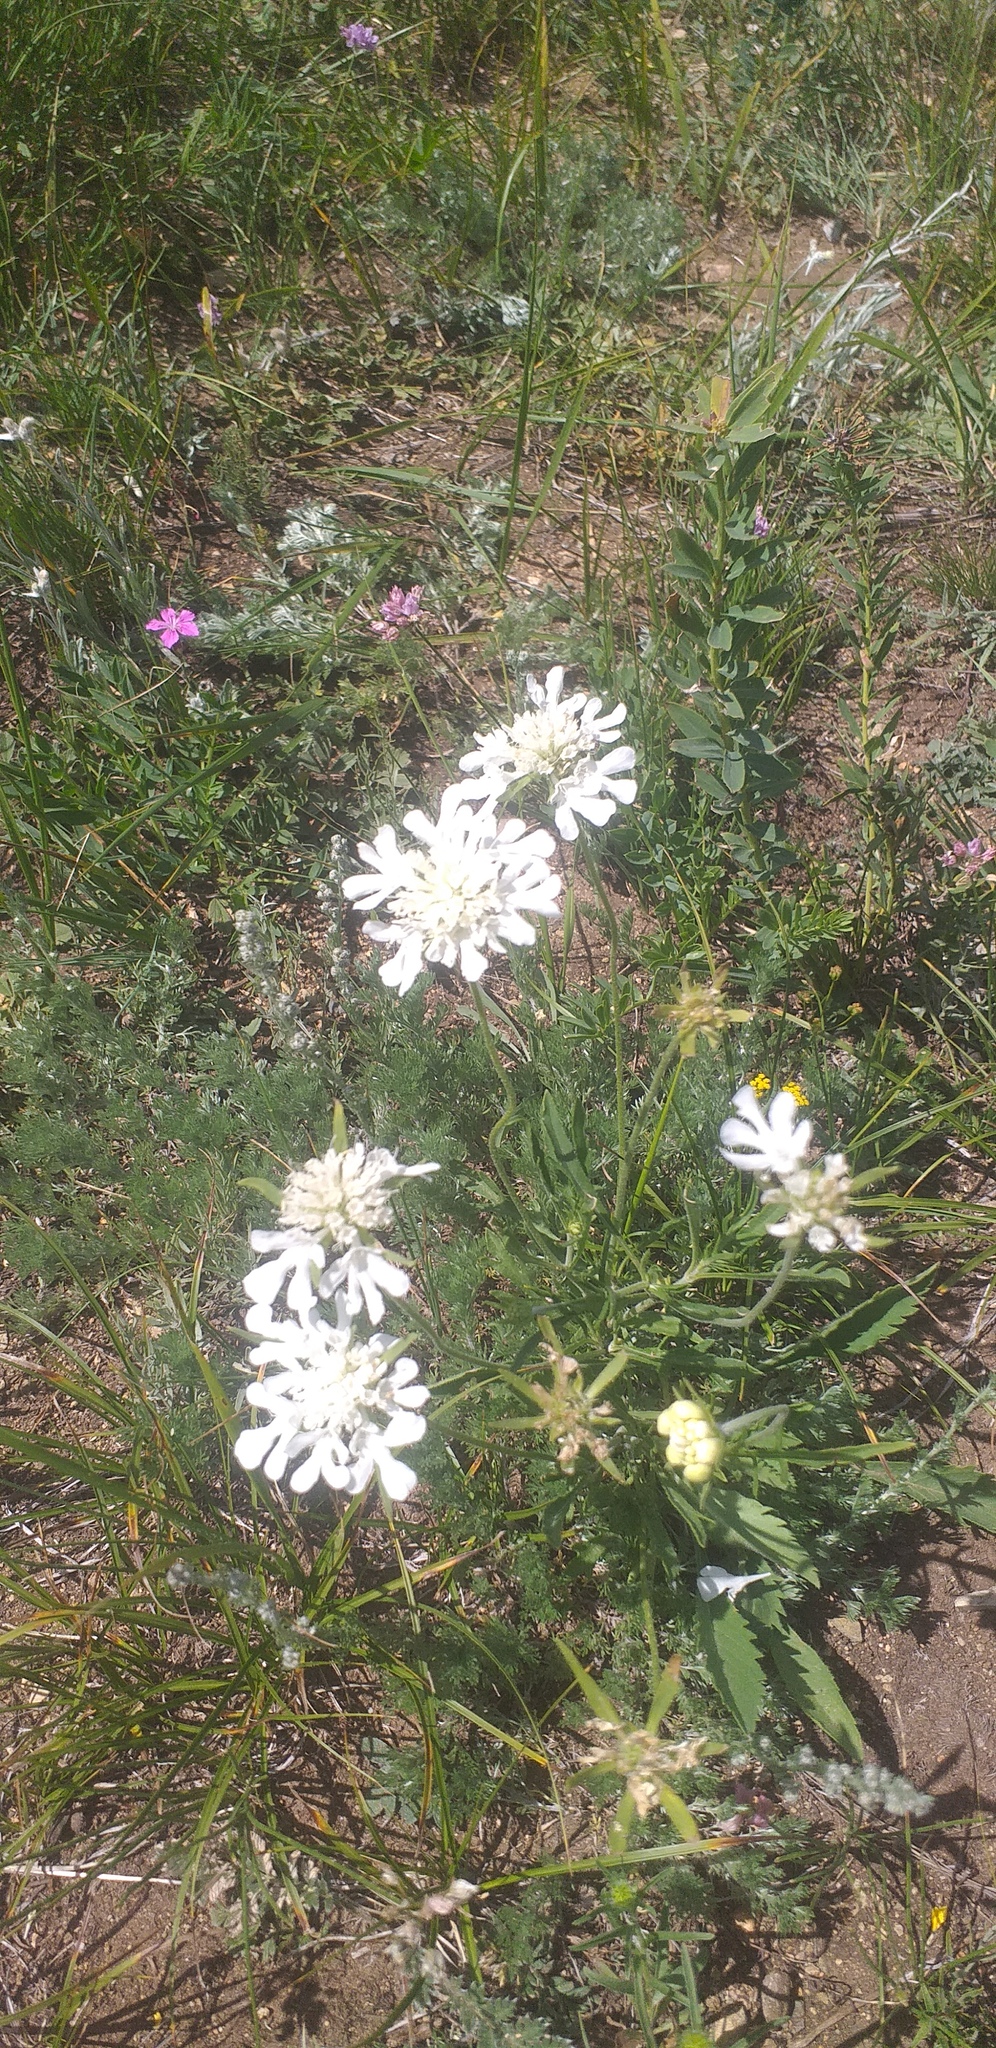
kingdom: Plantae
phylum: Tracheophyta
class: Magnoliopsida
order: Dipsacales
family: Caprifoliaceae
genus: Scabiosa
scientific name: Scabiosa ochroleuca
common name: Cream pincushions
